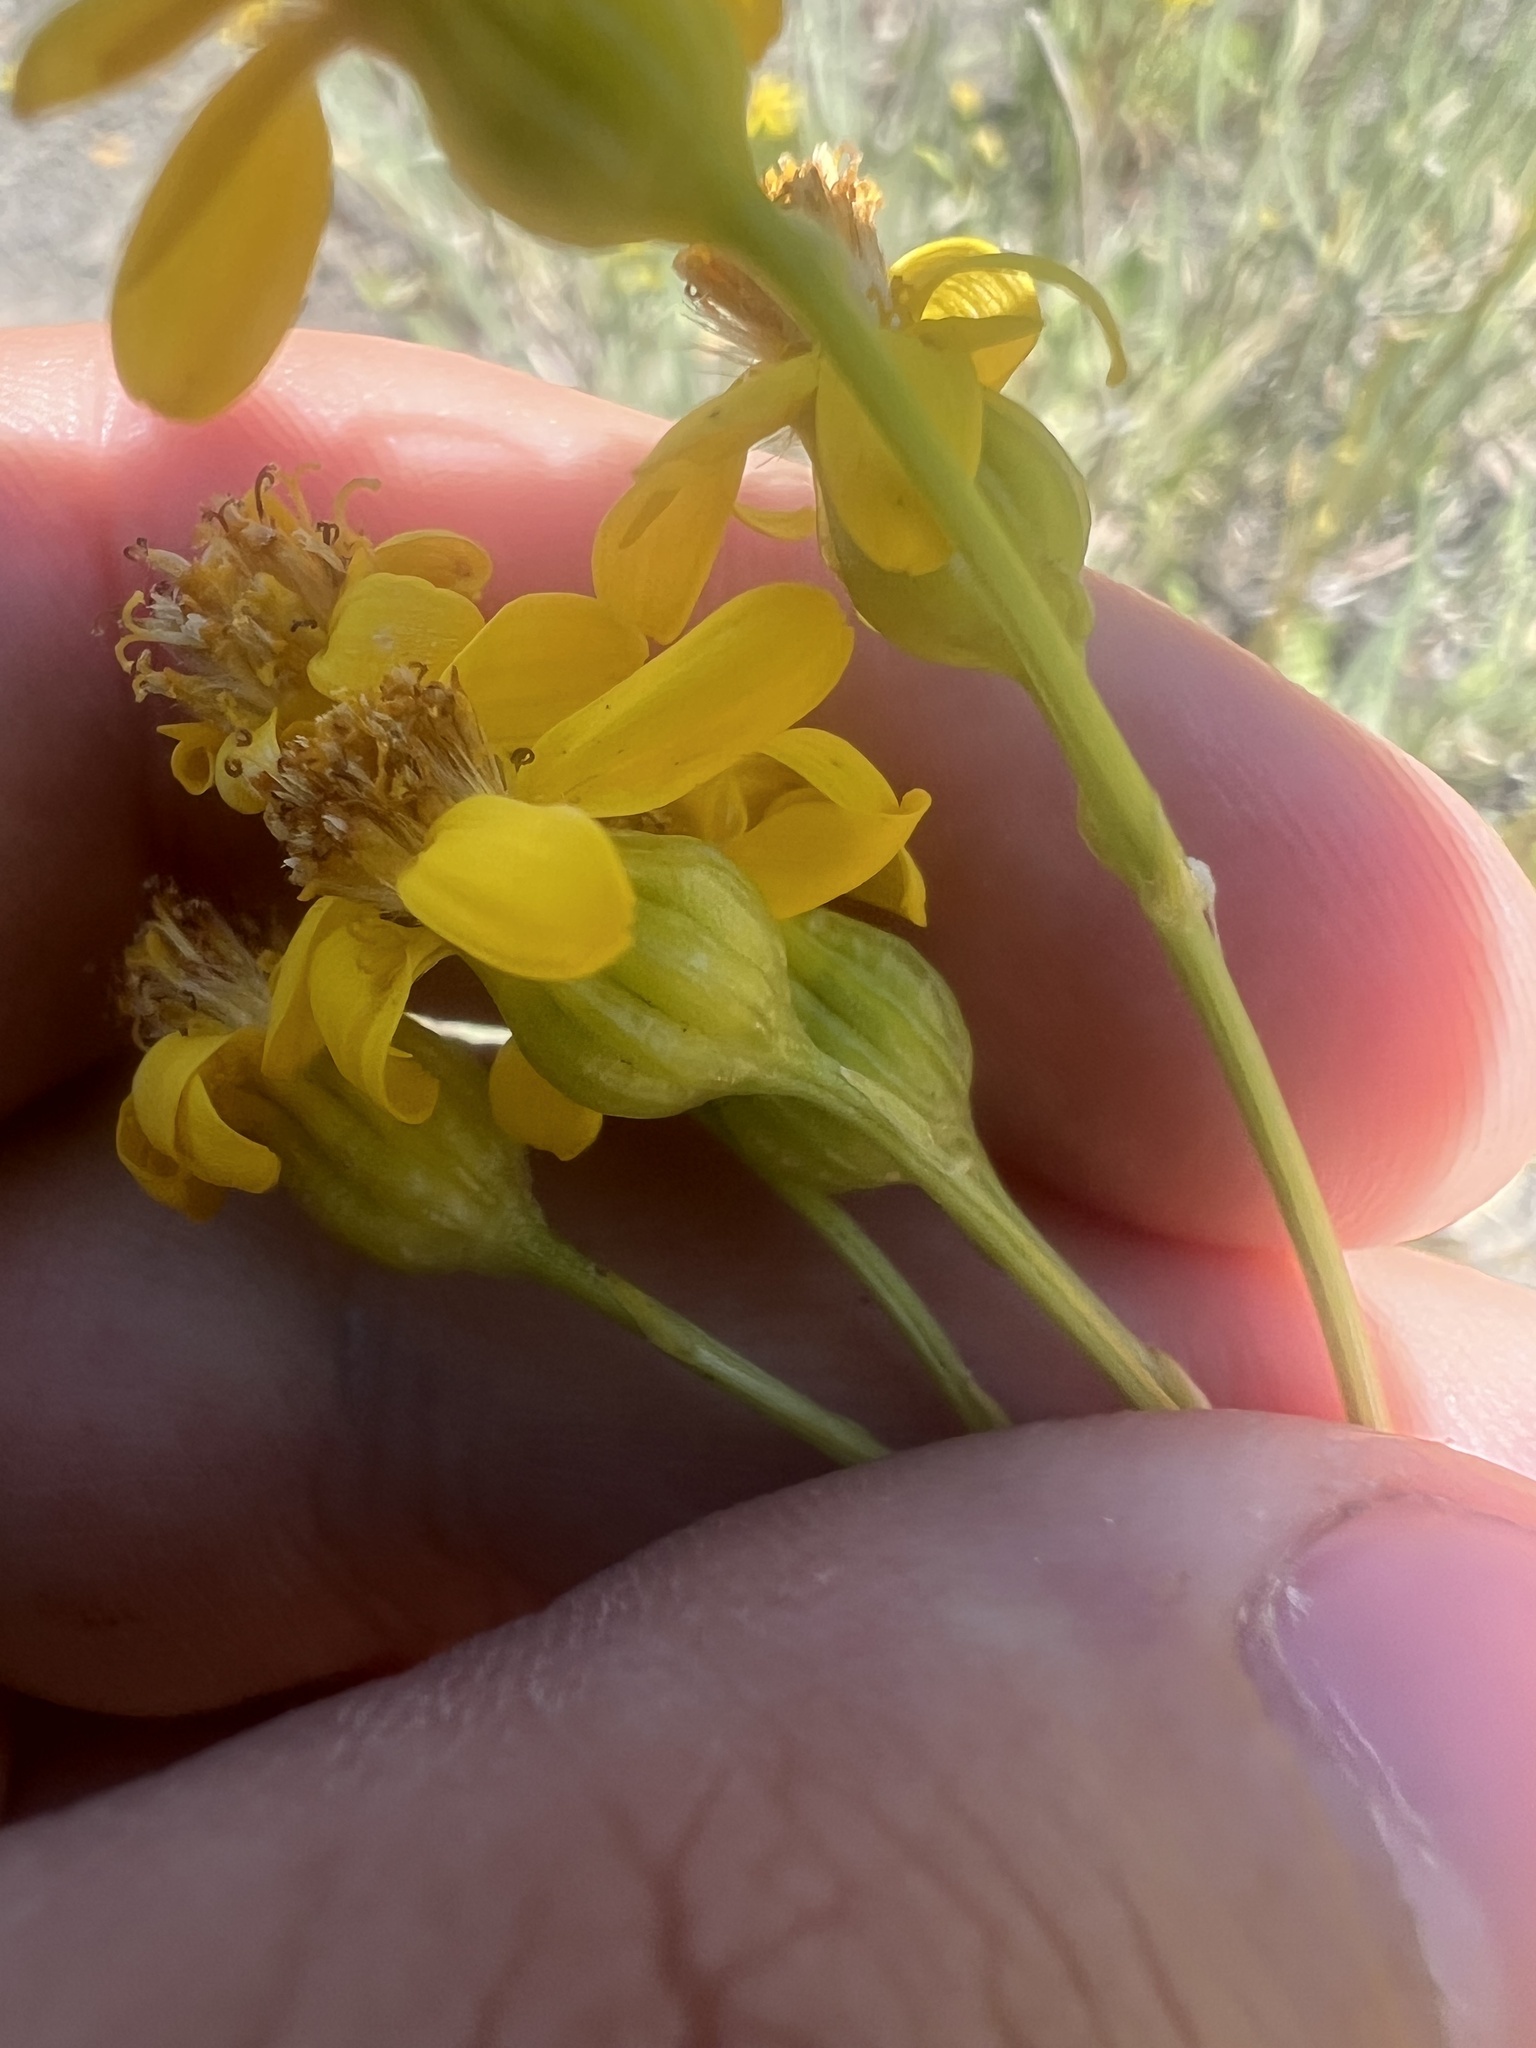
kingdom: Plantae
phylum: Tracheophyta
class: Magnoliopsida
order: Asterales
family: Asteraceae
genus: Packera
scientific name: Packera thurberi
